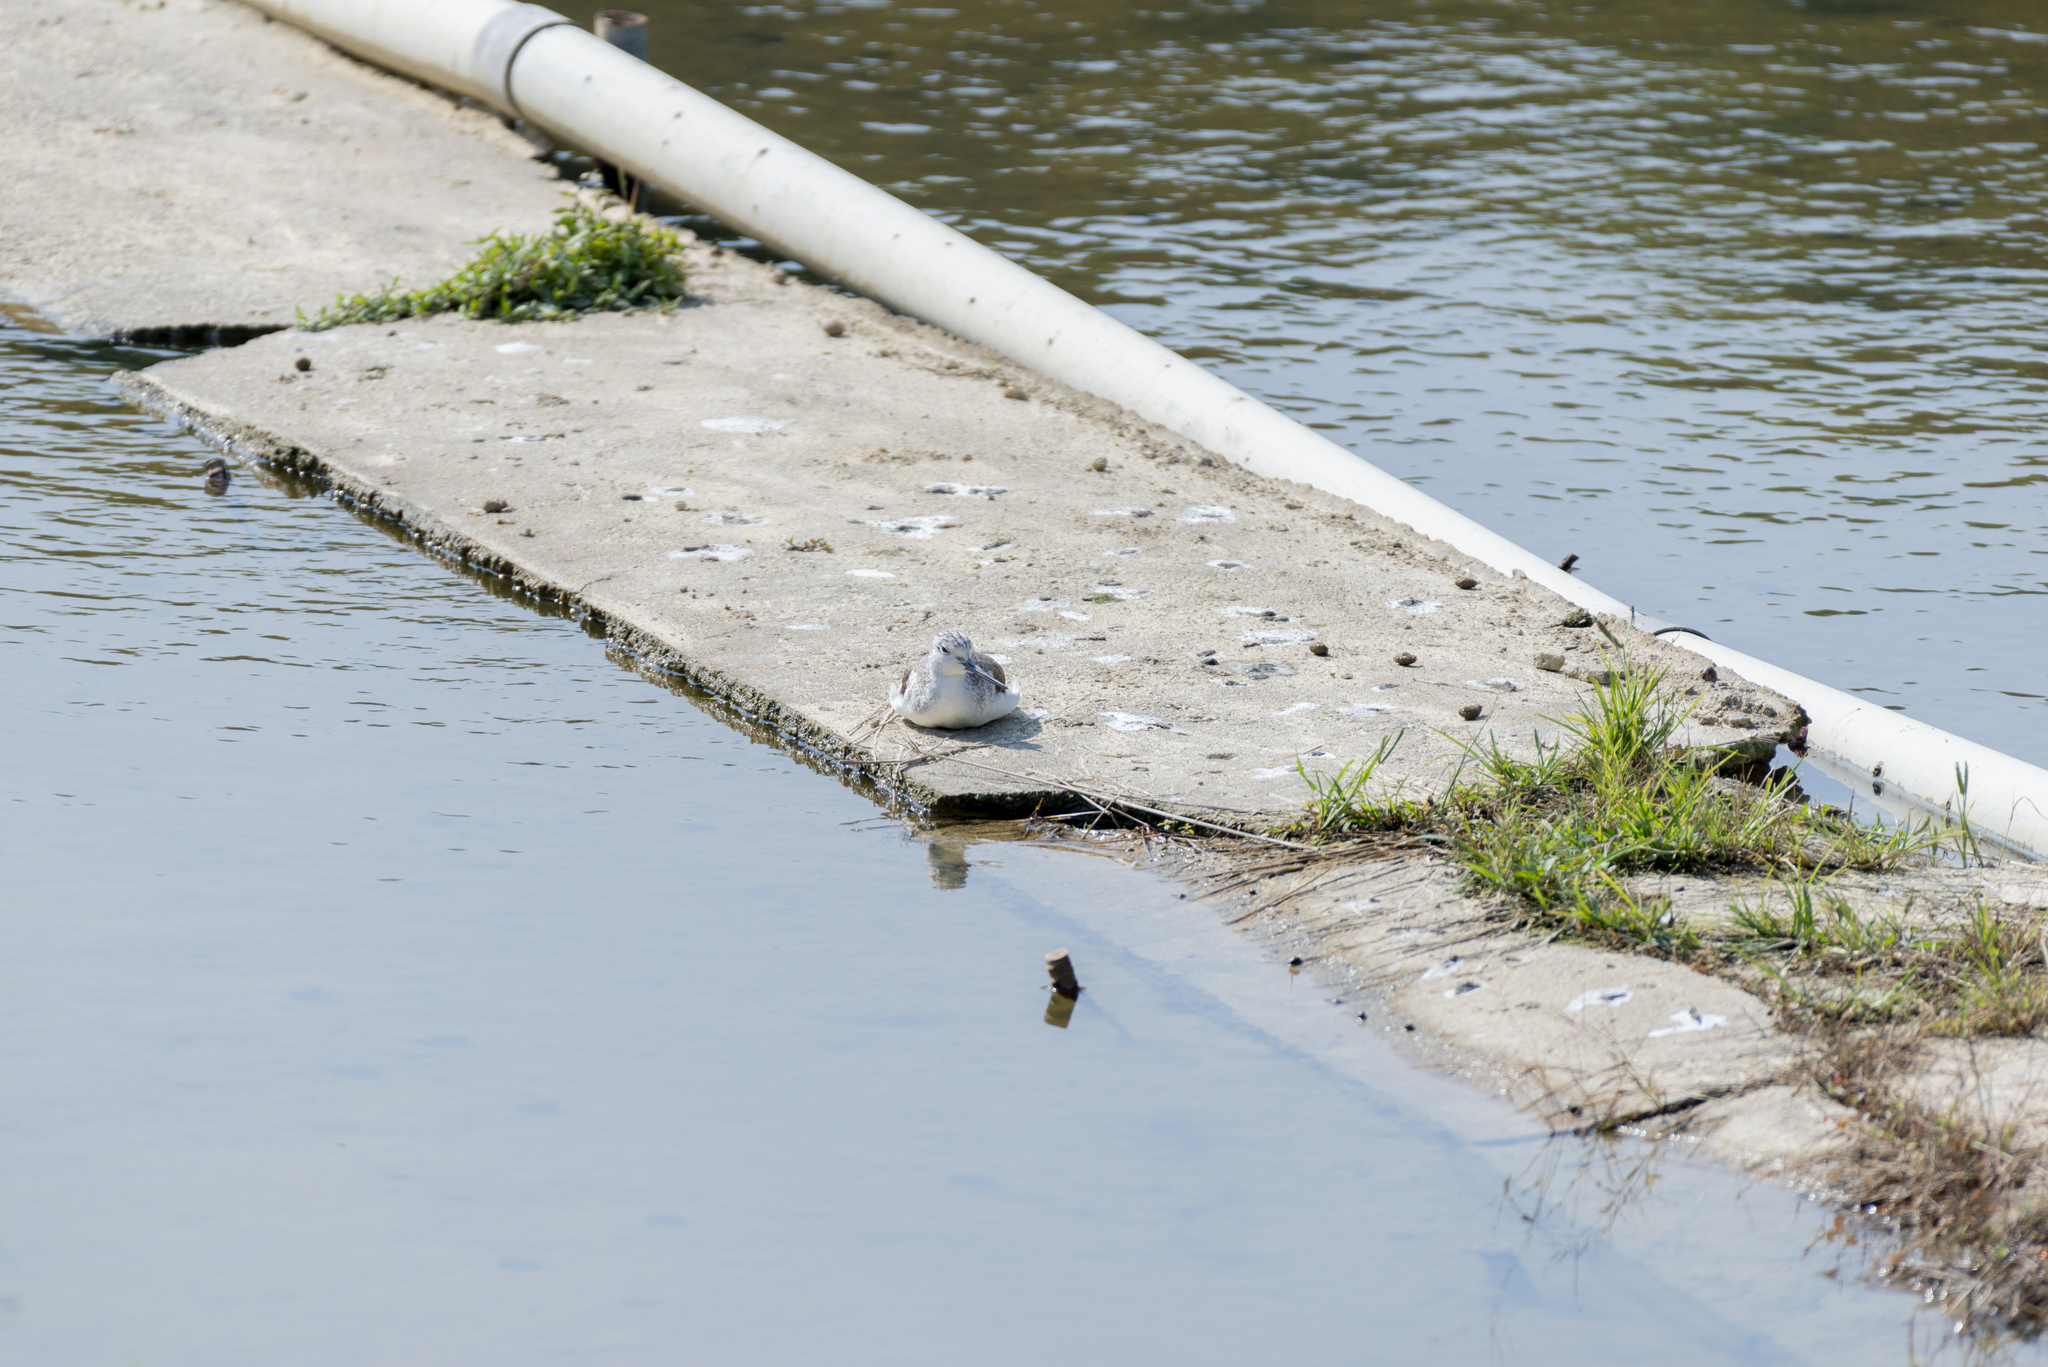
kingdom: Animalia
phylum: Chordata
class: Aves
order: Charadriiformes
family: Scolopacidae
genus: Tringa
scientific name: Tringa stagnatilis
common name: Marsh sandpiper
